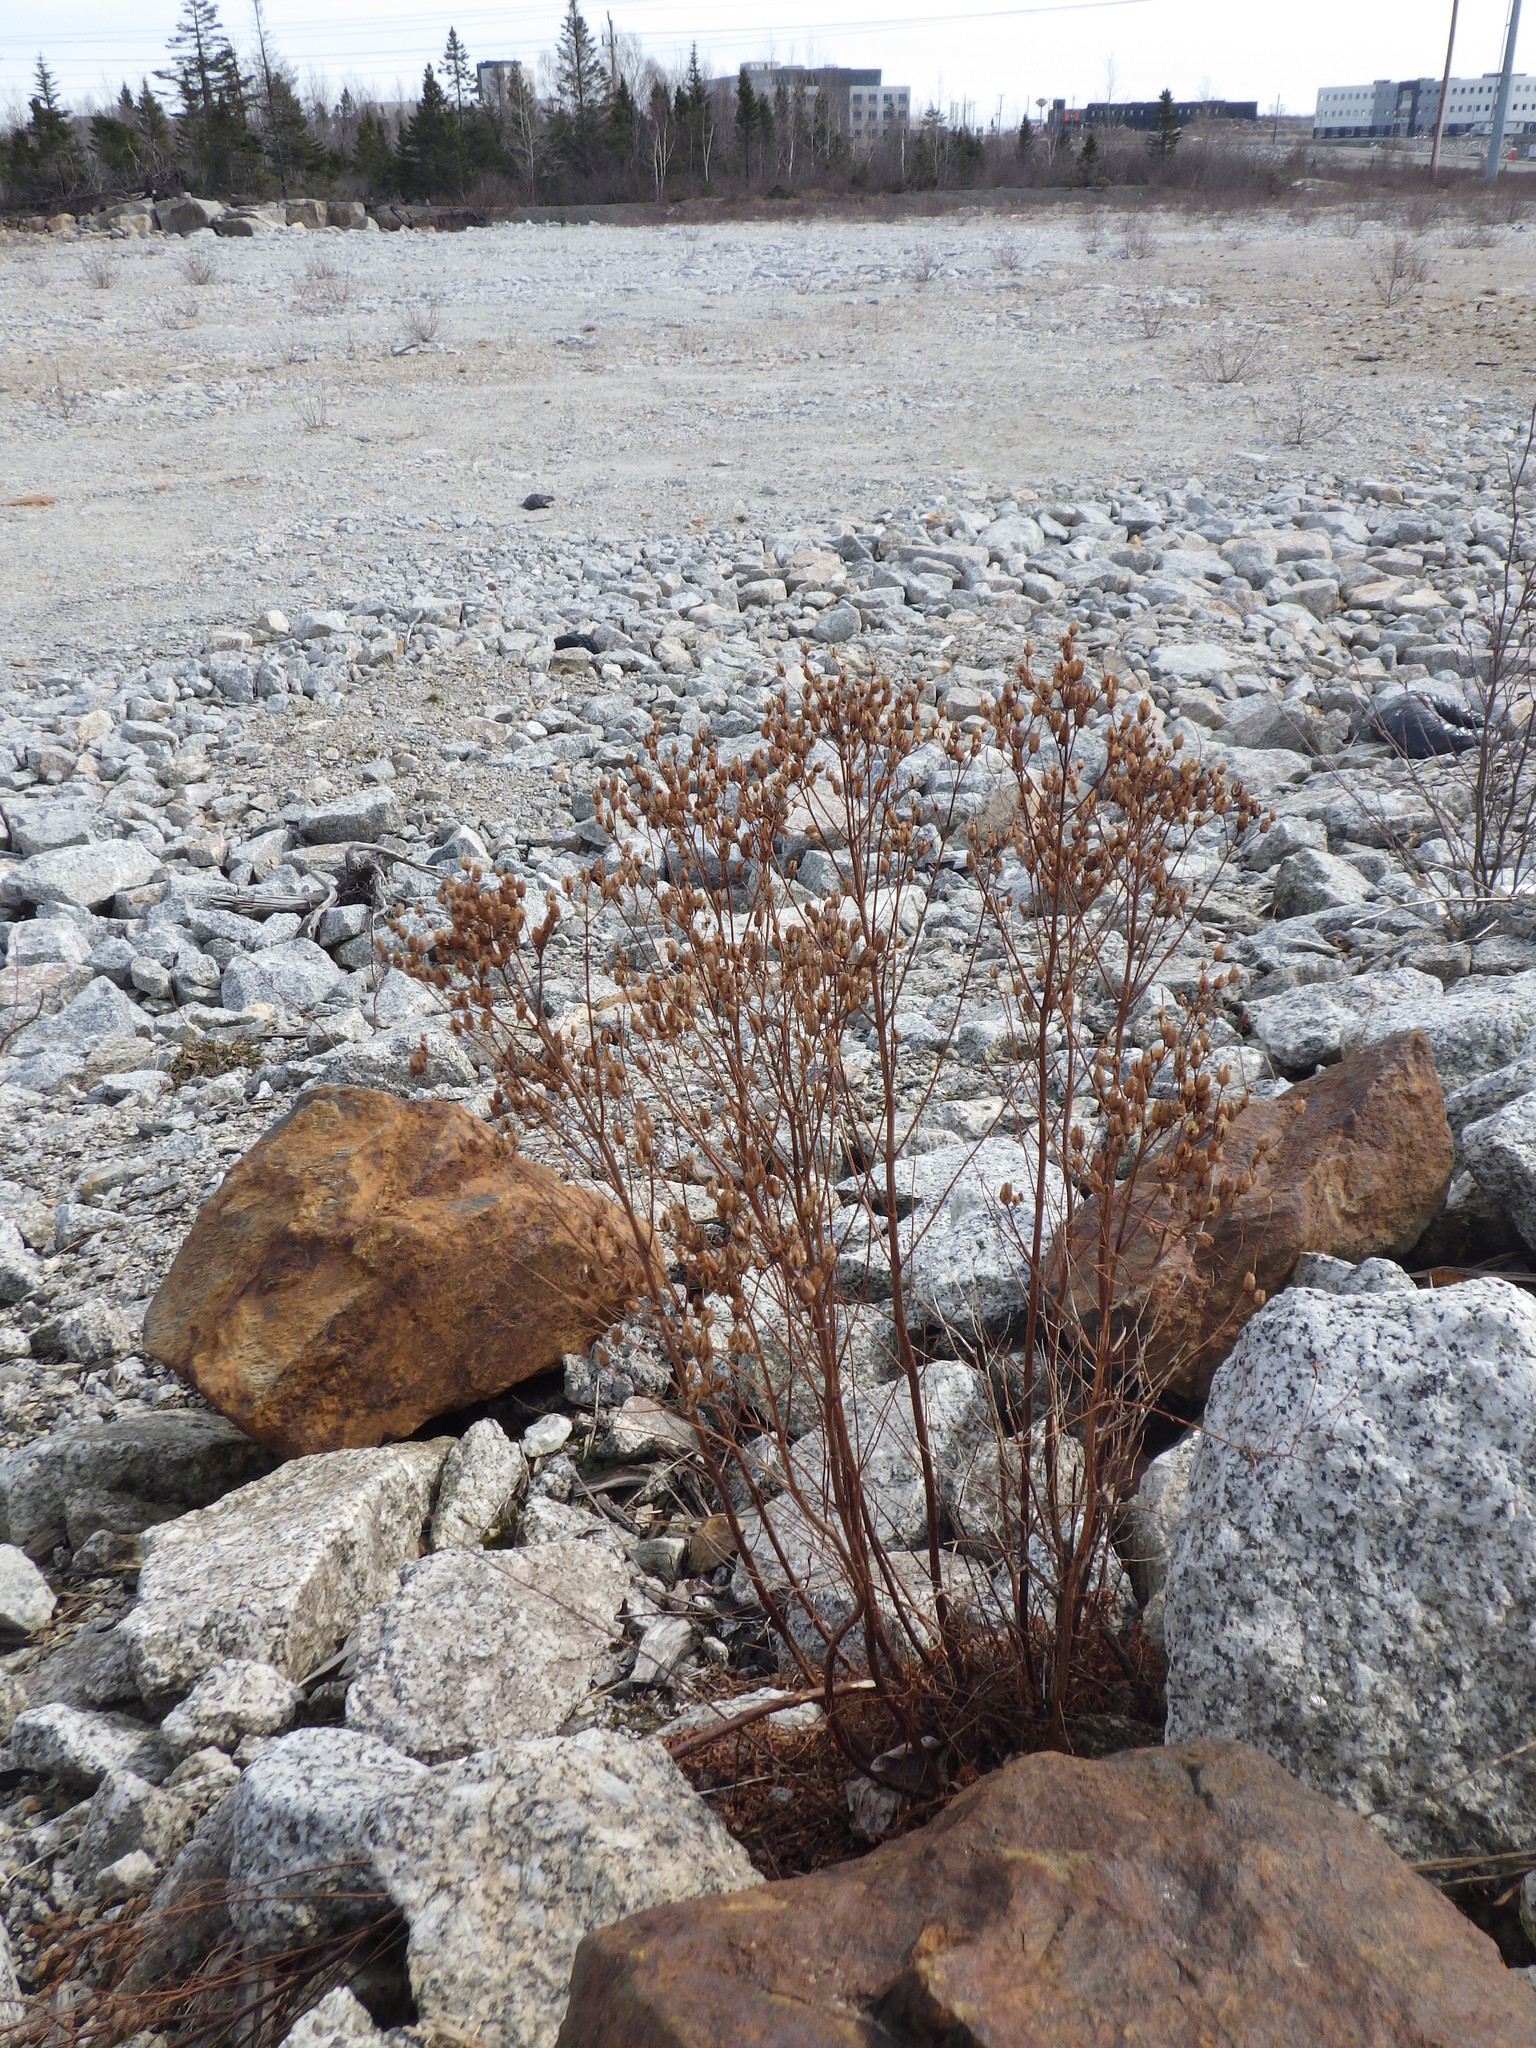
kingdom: Plantae
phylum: Tracheophyta
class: Magnoliopsida
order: Malpighiales
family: Hypericaceae
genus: Hypericum
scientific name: Hypericum perforatum
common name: Common st. johnswort
